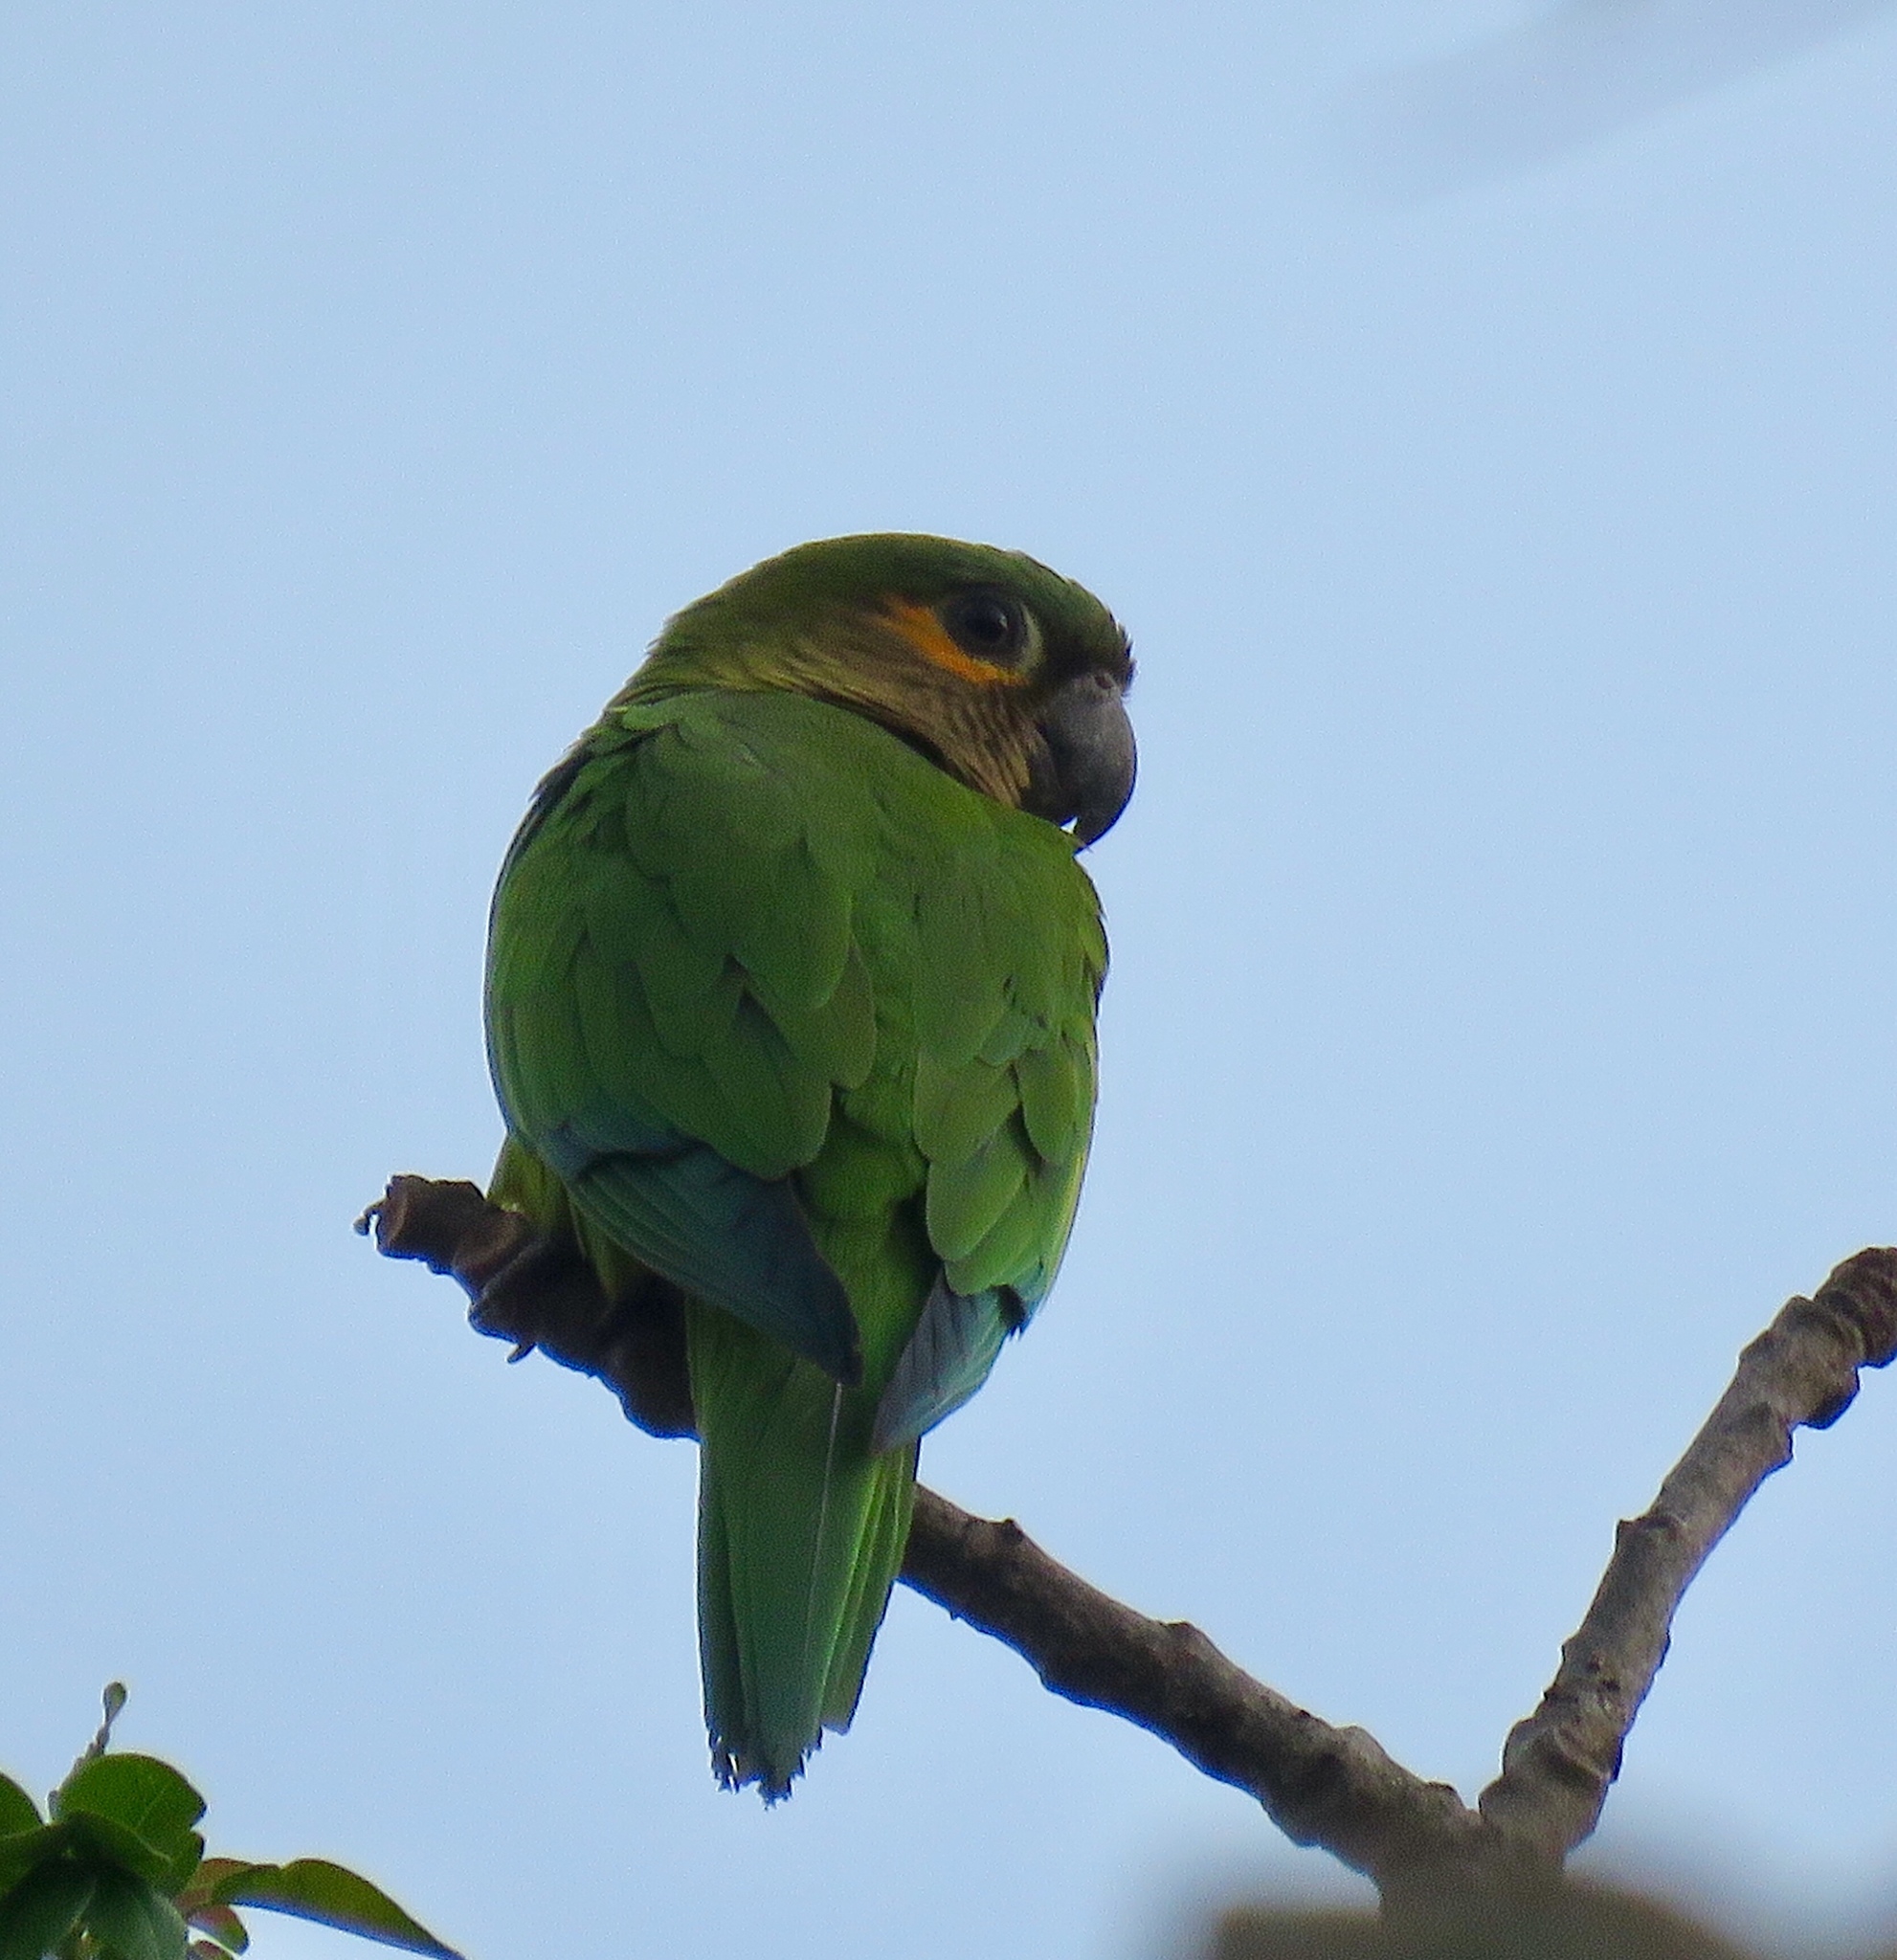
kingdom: Animalia
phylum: Chordata
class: Aves
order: Psittaciformes
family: Psittacidae
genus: Aratinga
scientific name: Aratinga pertinax
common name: Brown-throated parakeet
